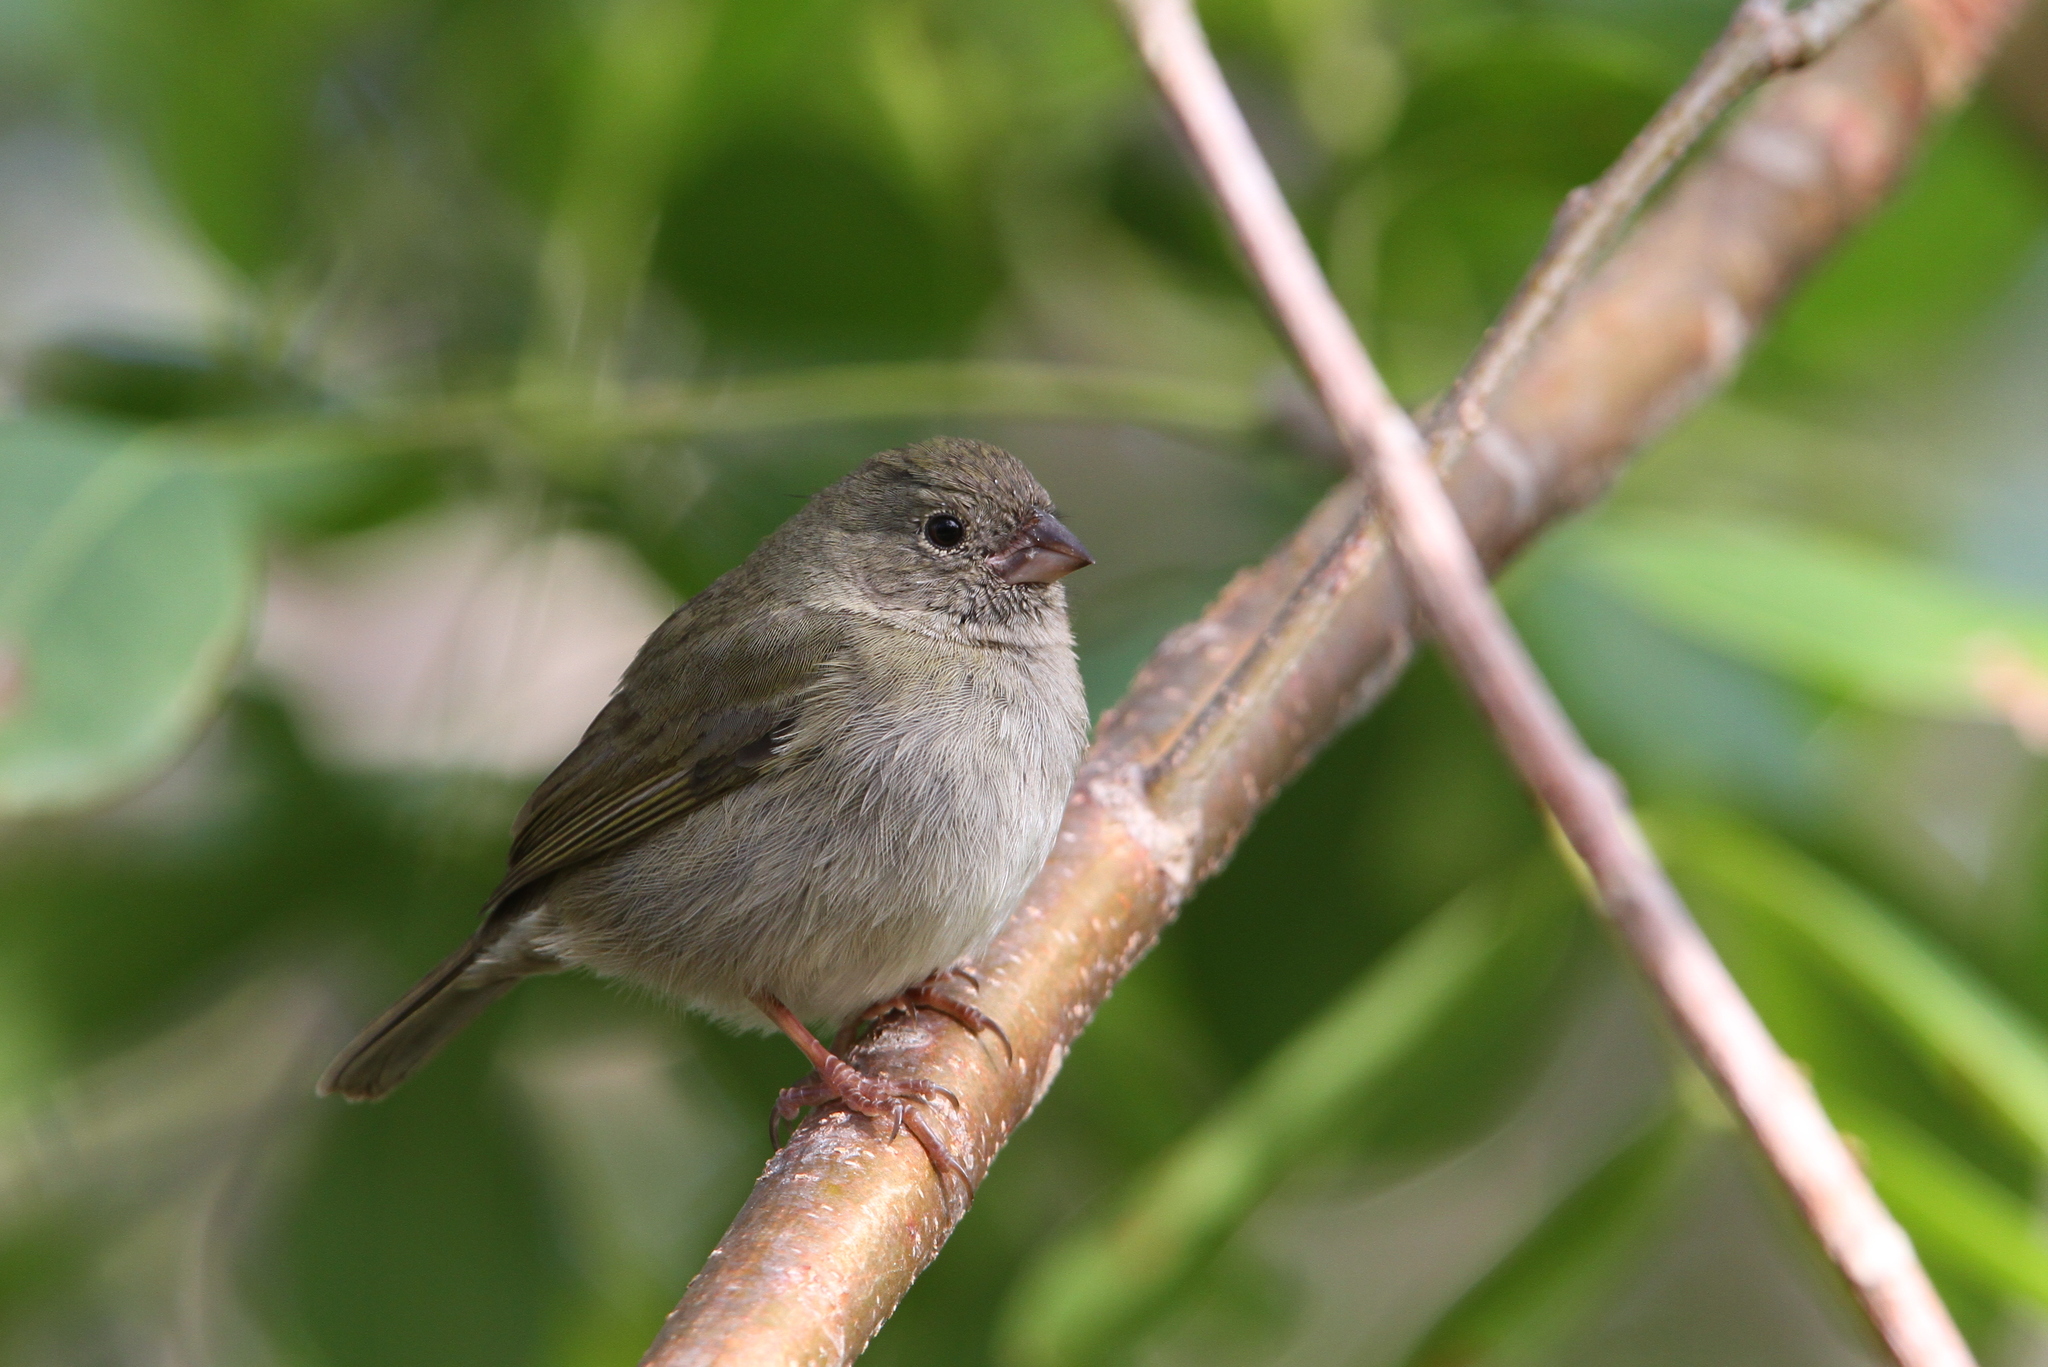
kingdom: Animalia
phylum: Chordata
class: Aves
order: Passeriformes
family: Thraupidae
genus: Melanospiza
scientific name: Melanospiza bicolor
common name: Black-faced grassquit
